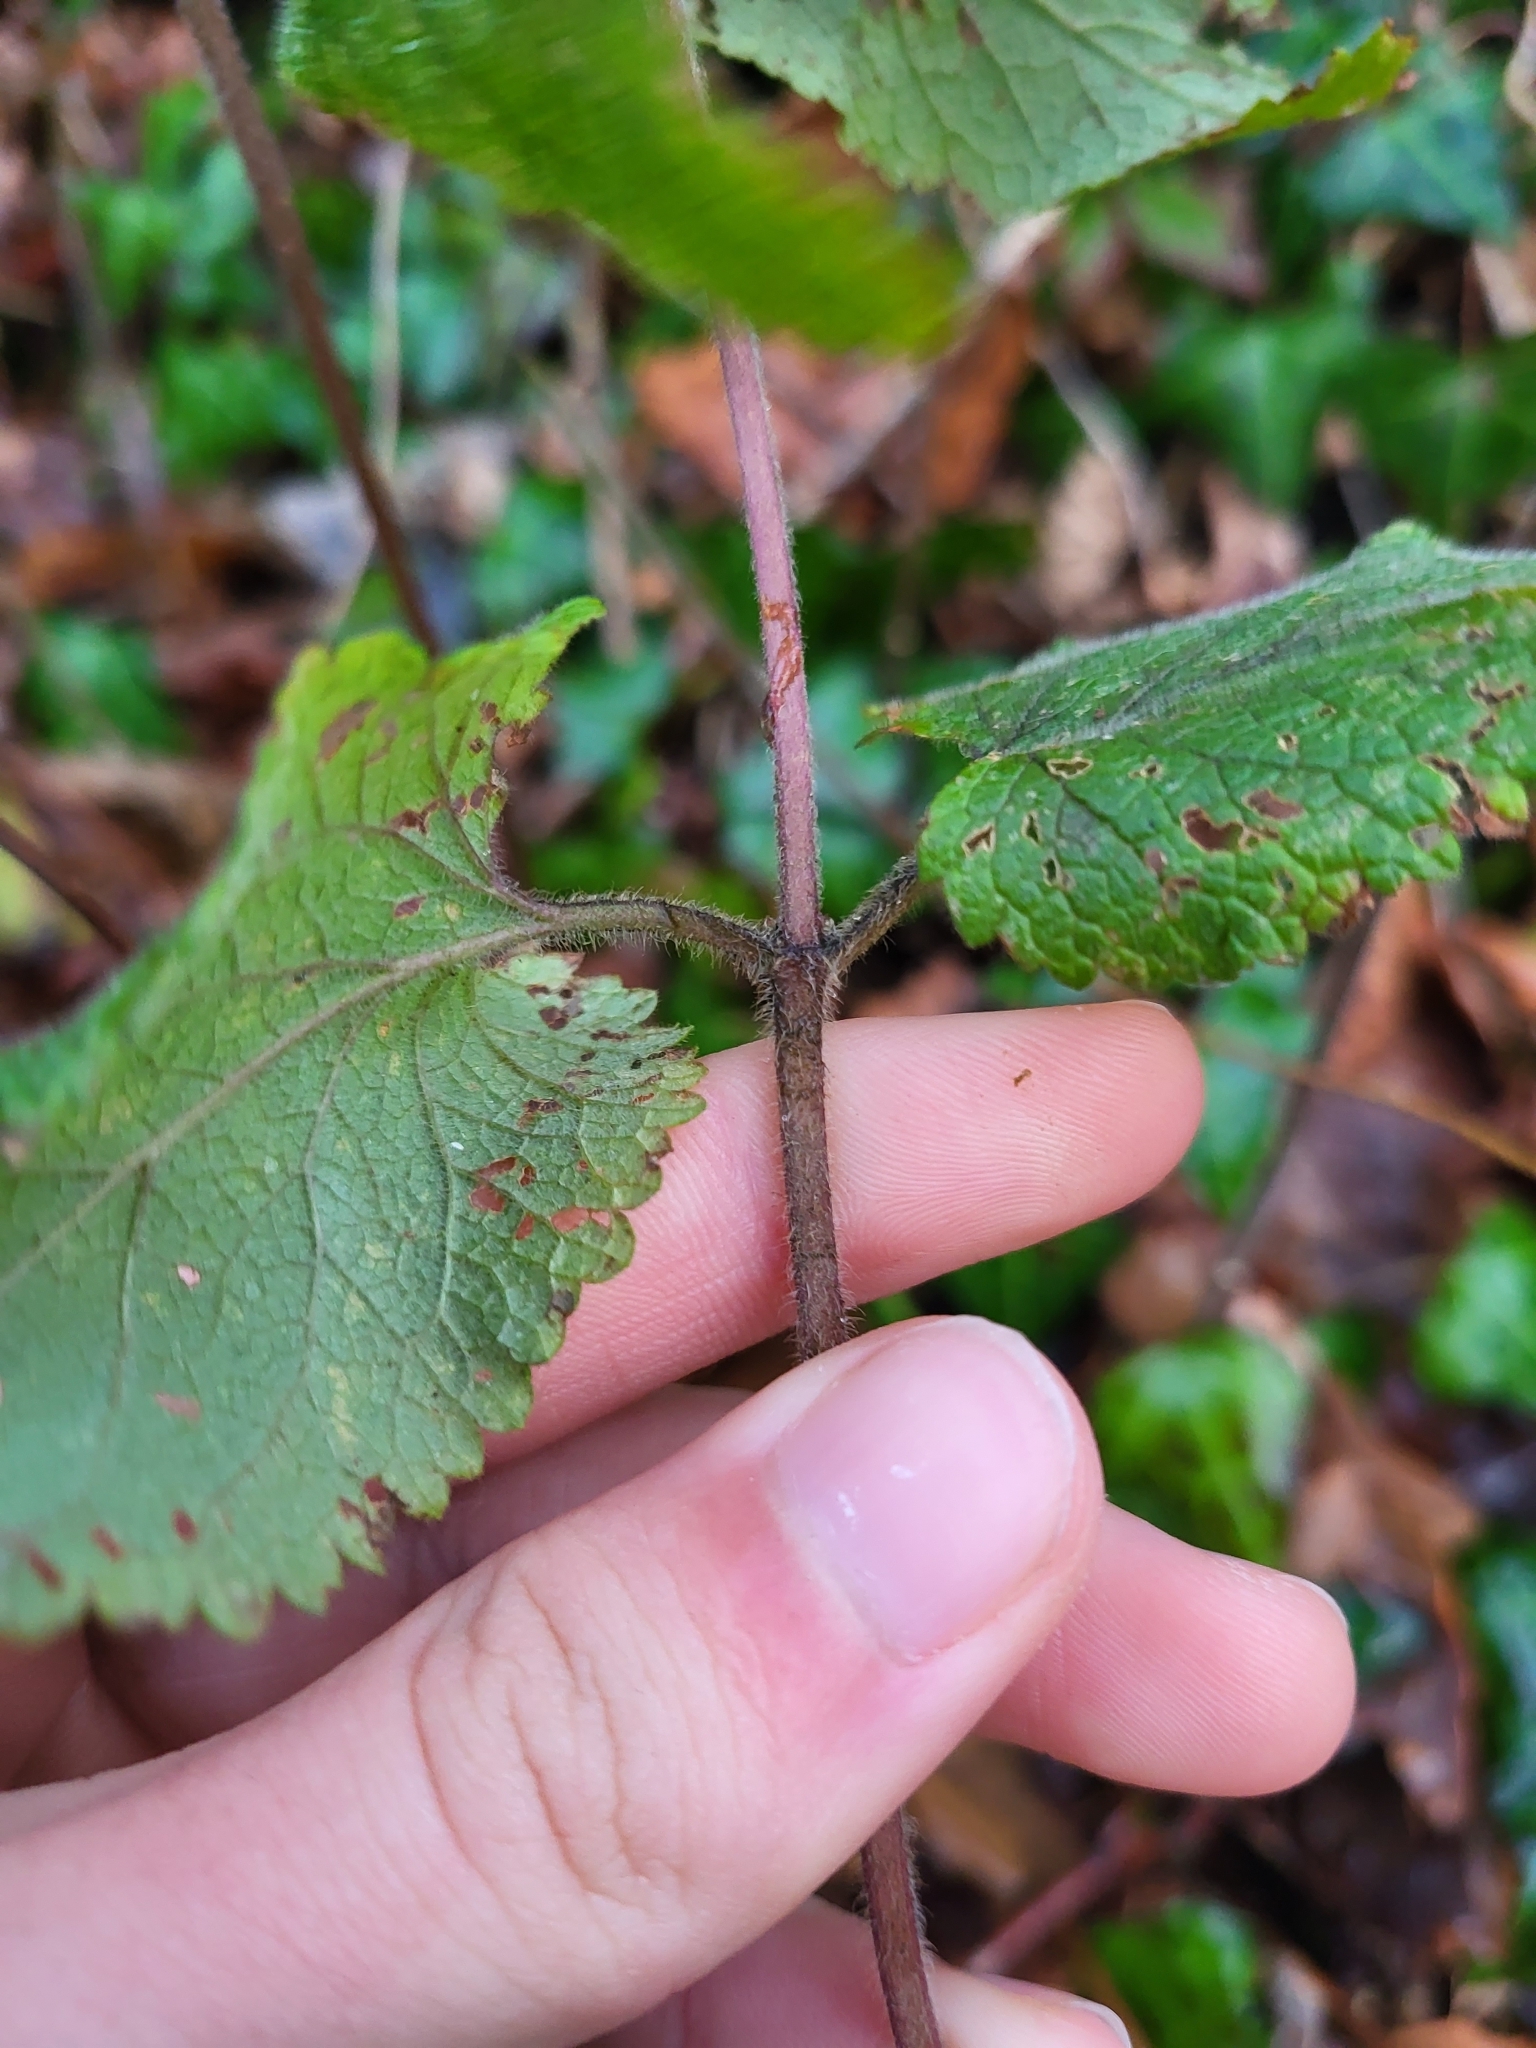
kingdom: Plantae
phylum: Tracheophyta
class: Magnoliopsida
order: Lamiales
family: Lamiaceae
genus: Teucrium
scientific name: Teucrium scorodonia
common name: Woodland germander
